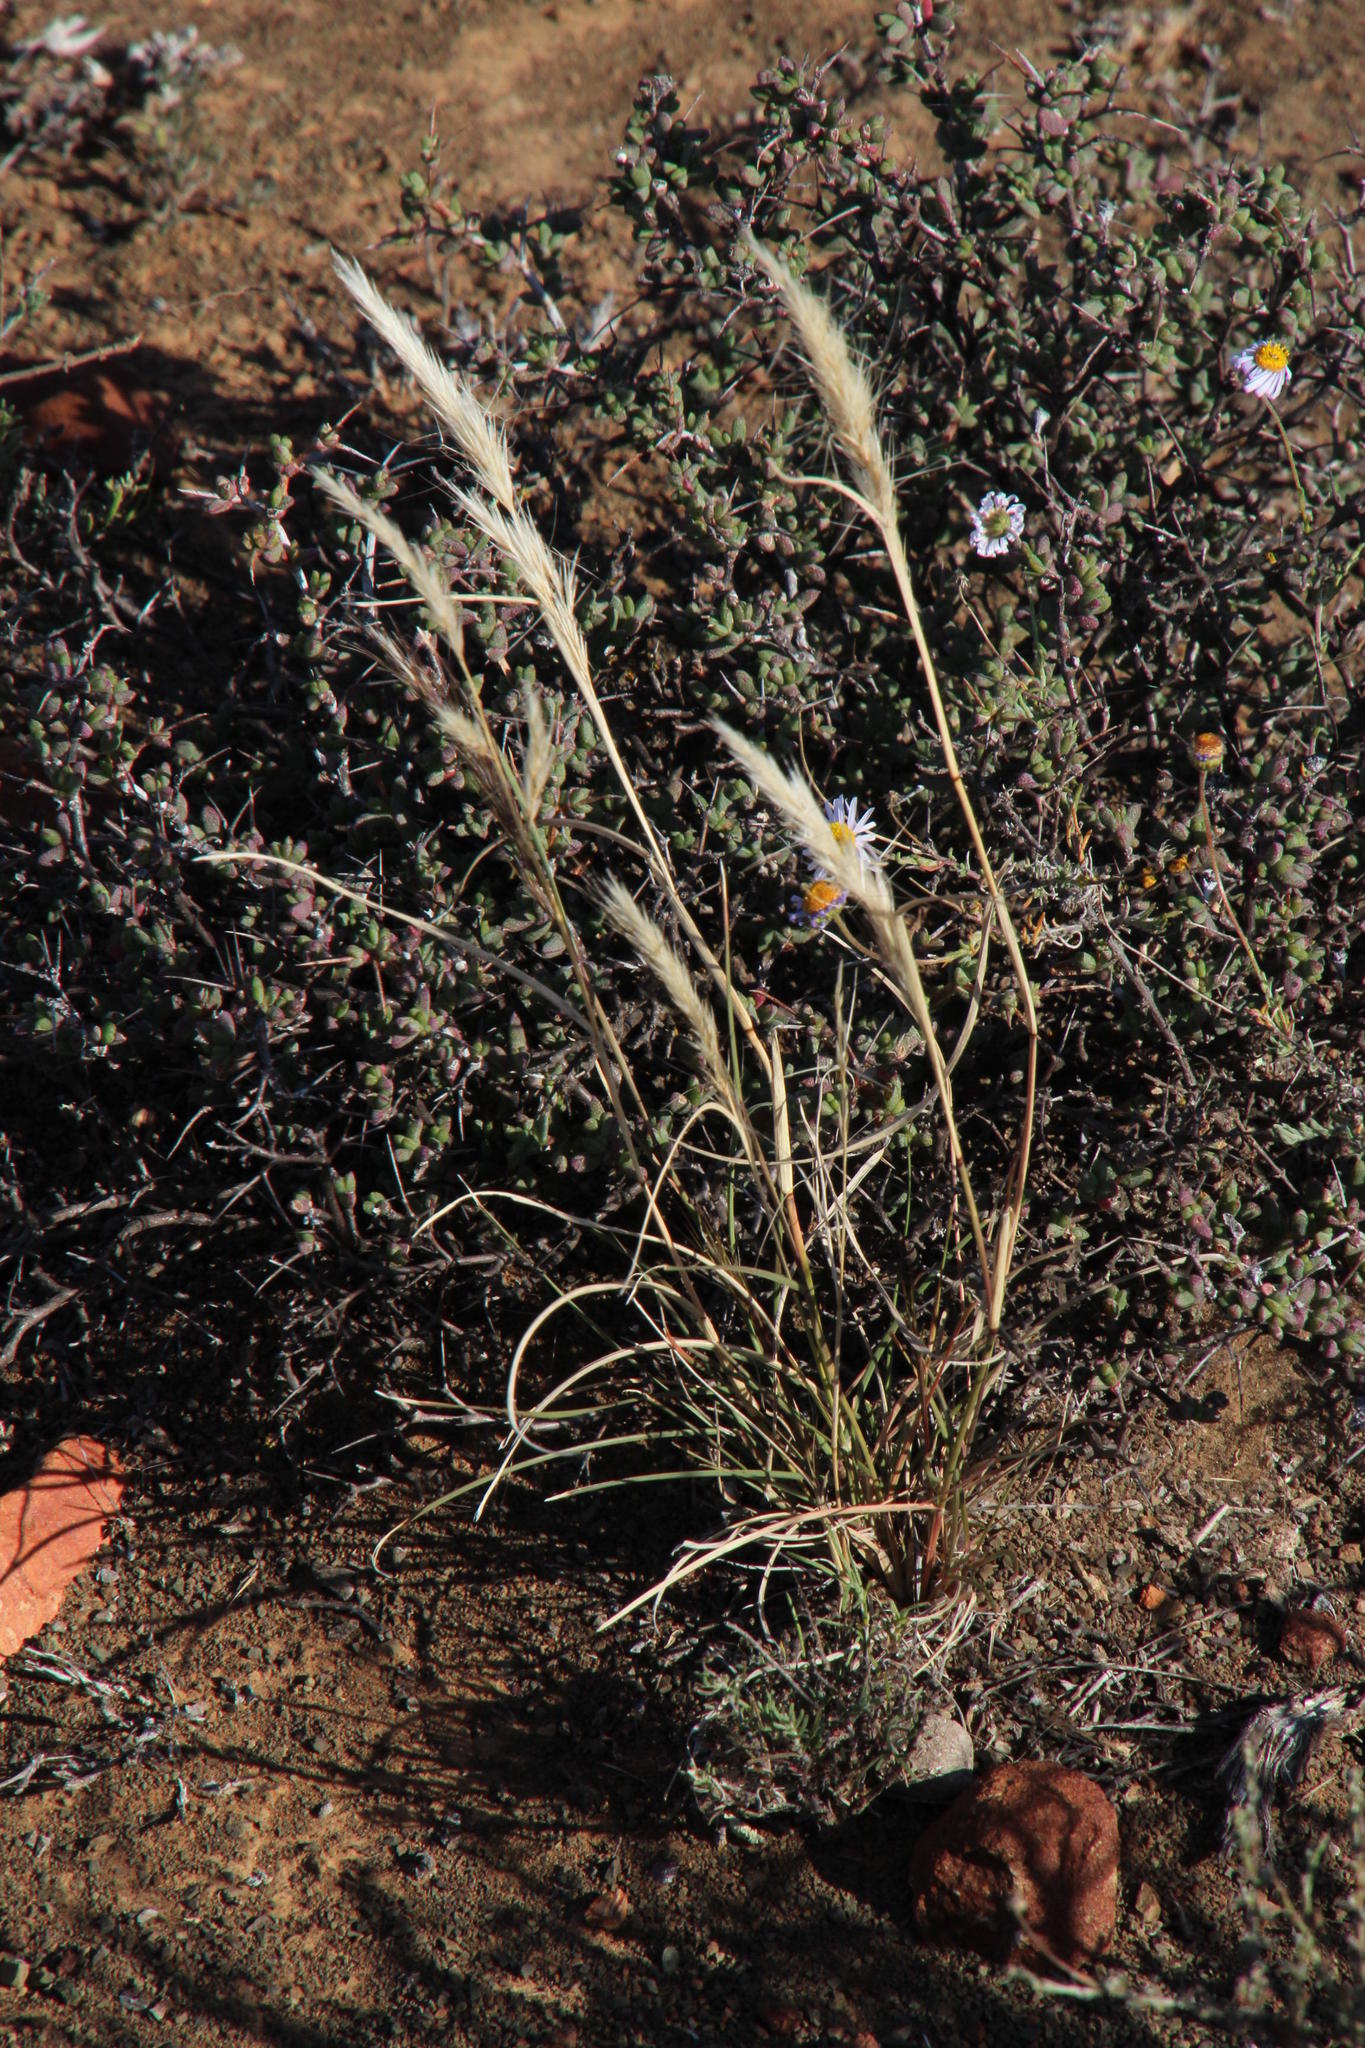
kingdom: Plantae
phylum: Tracheophyta
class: Liliopsida
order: Poales
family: Poaceae
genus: Aristida
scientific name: Aristida congesta
